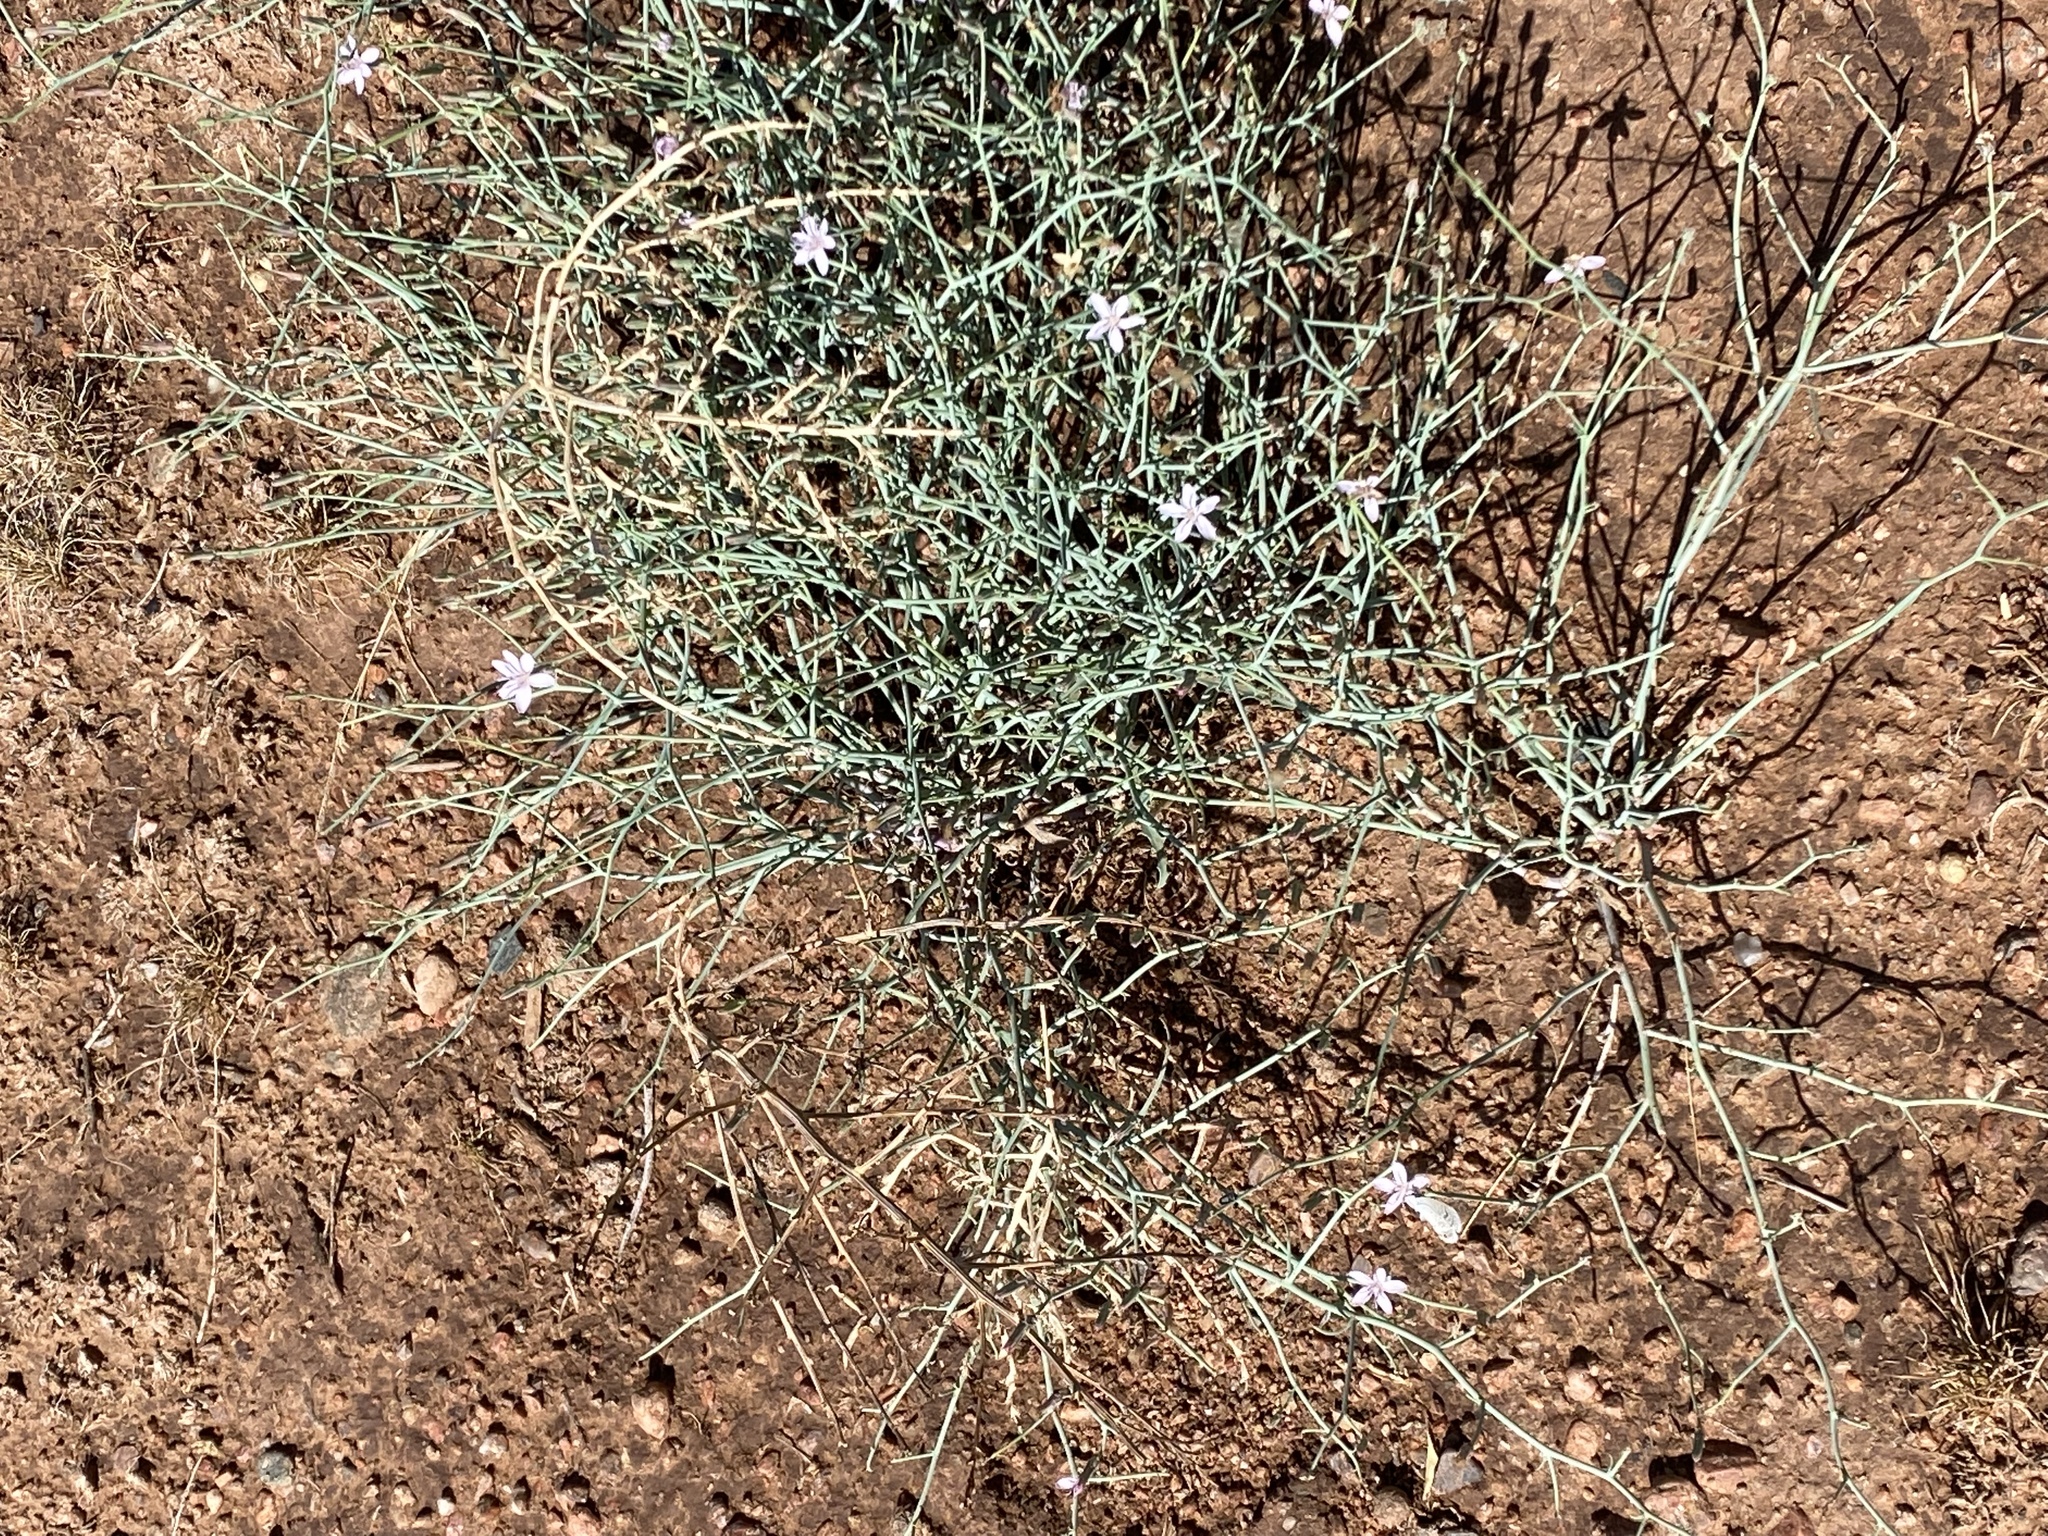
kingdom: Plantae
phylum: Tracheophyta
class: Magnoliopsida
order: Asterales
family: Asteraceae
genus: Stephanomeria
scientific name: Stephanomeria
